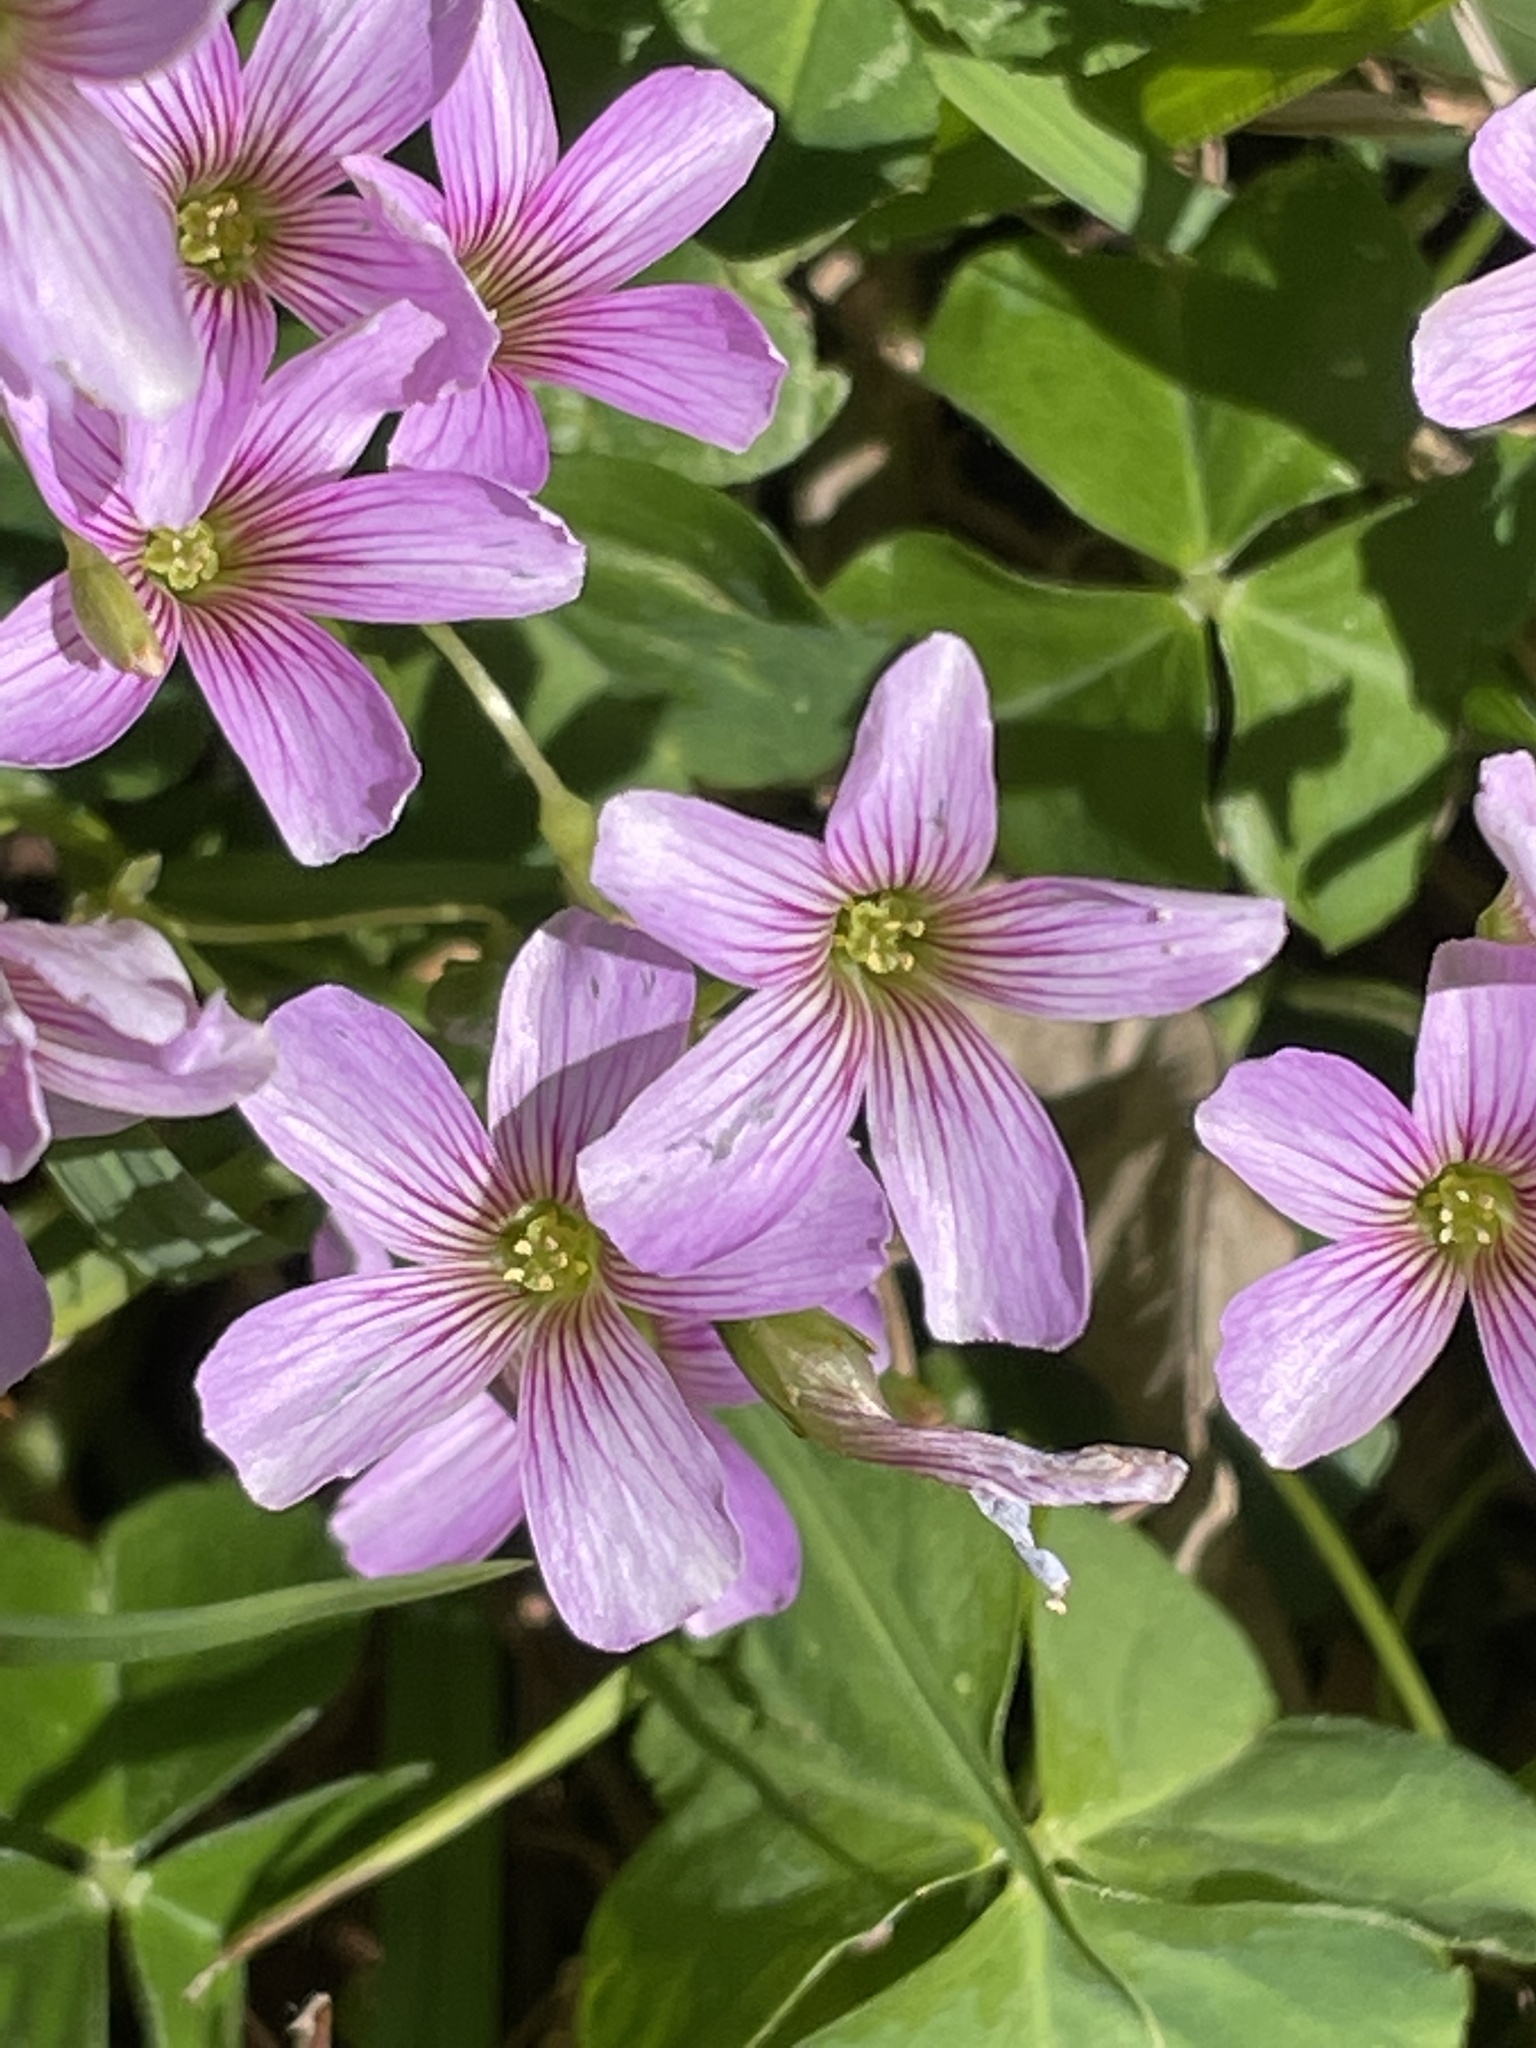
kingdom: Plantae
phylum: Tracheophyta
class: Magnoliopsida
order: Oxalidales
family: Oxalidaceae
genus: Oxalis
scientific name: Oxalis debilis
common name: Large-flowered pink-sorrel
